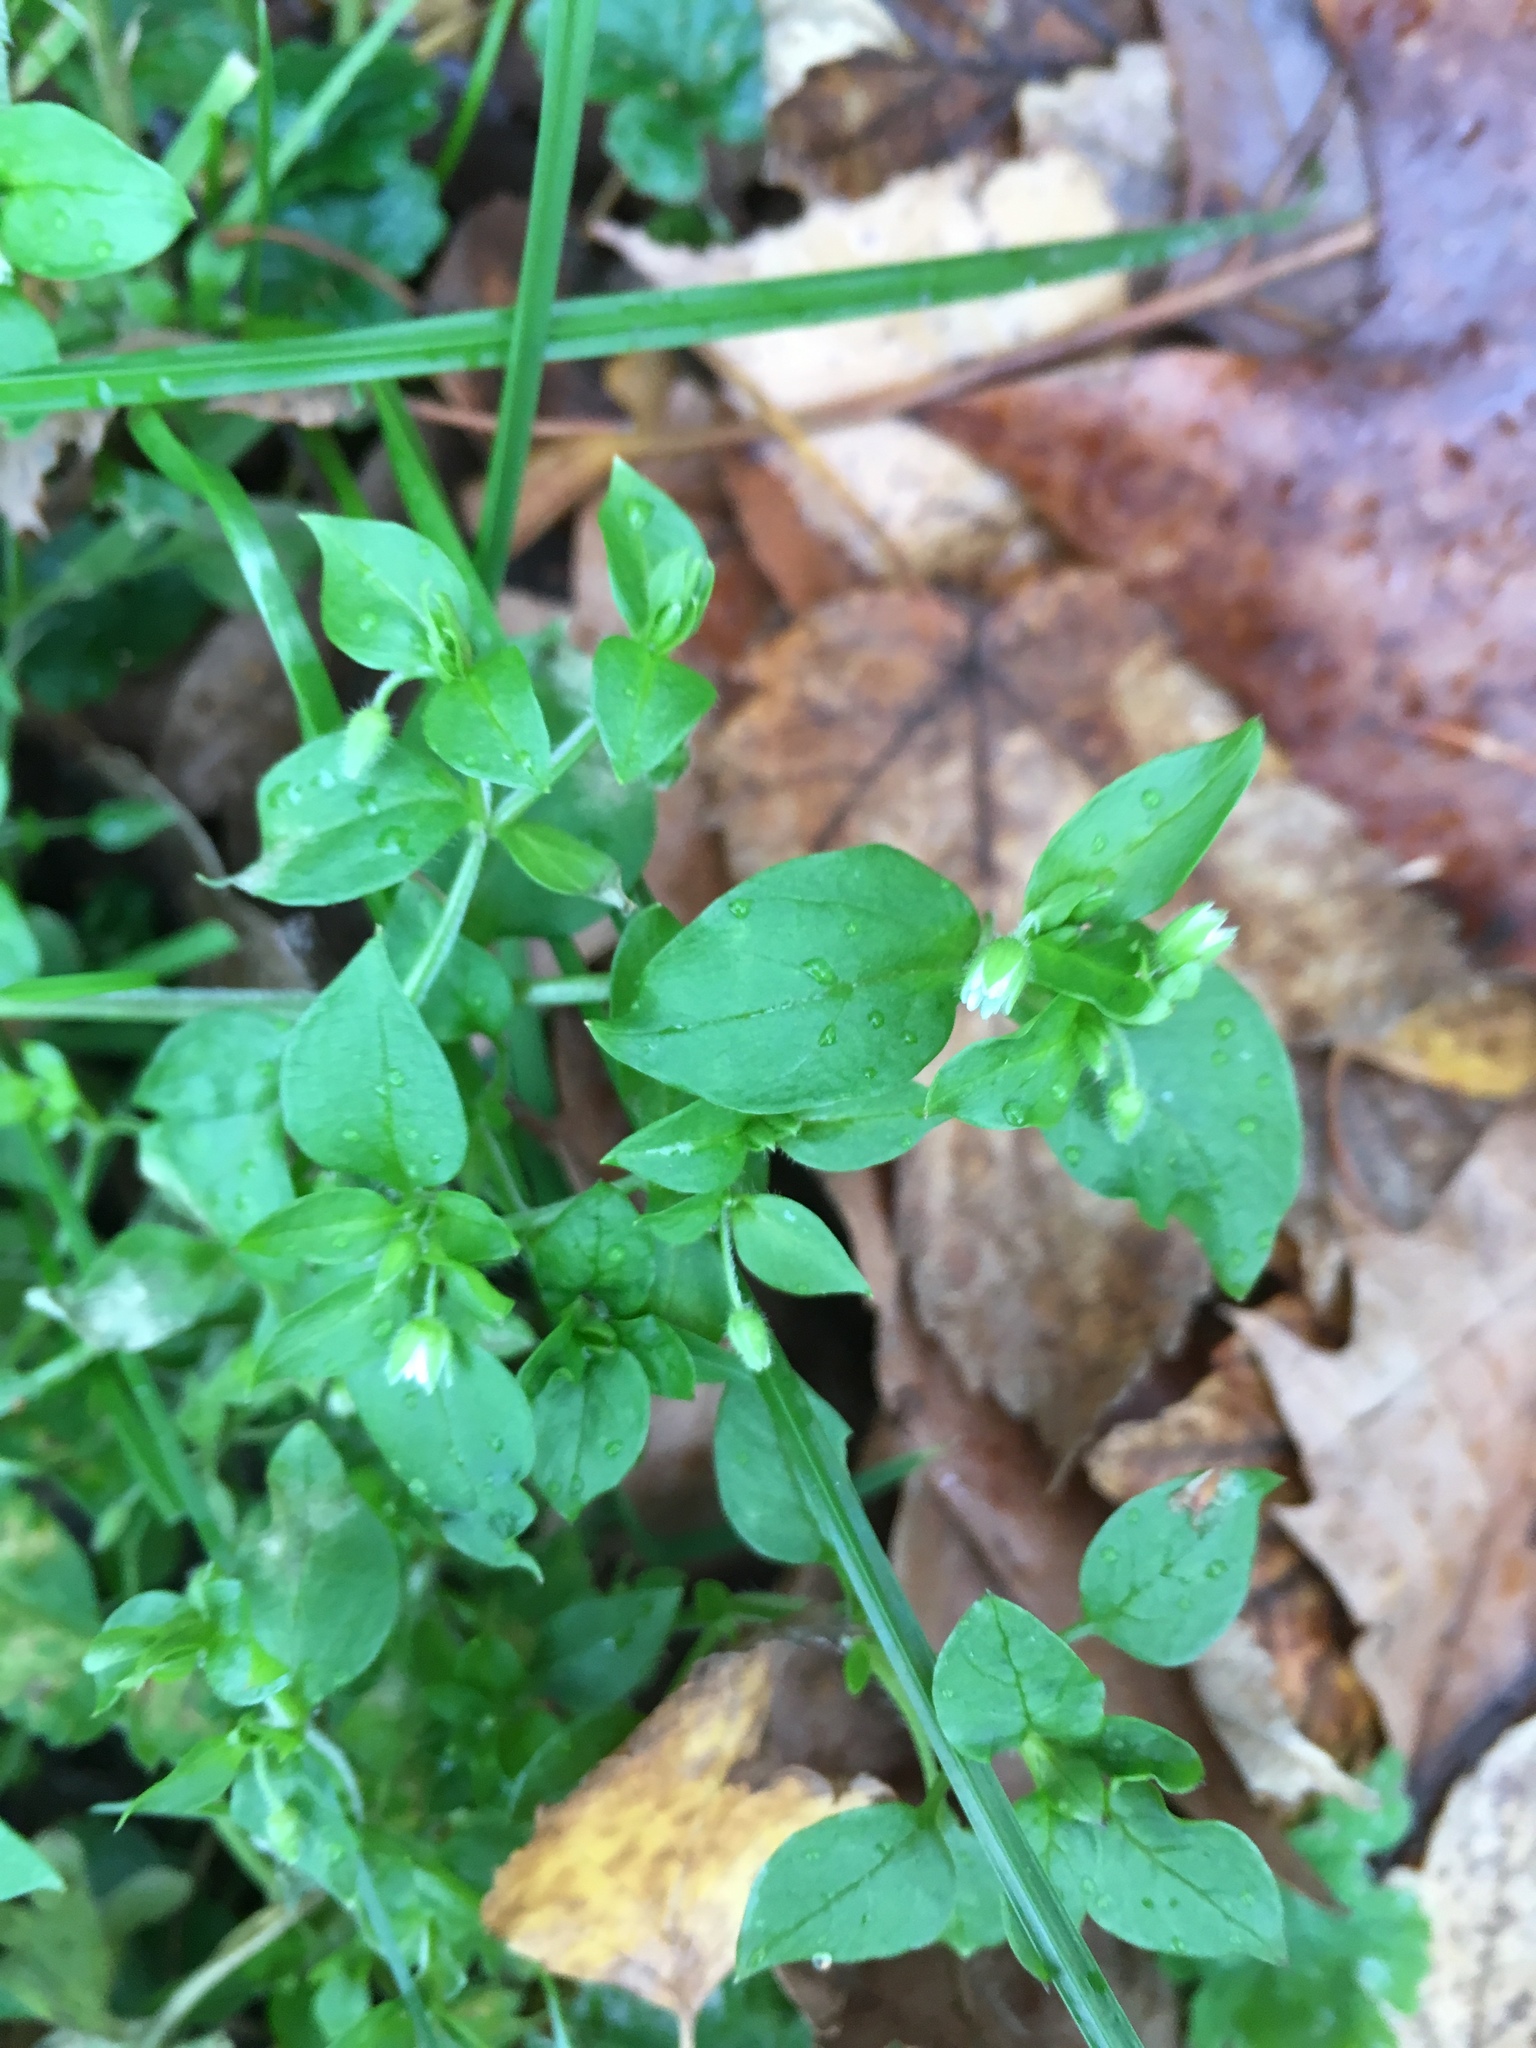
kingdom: Plantae
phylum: Tracheophyta
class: Magnoliopsida
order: Caryophyllales
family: Caryophyllaceae
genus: Stellaria
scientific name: Stellaria media
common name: Common chickweed
